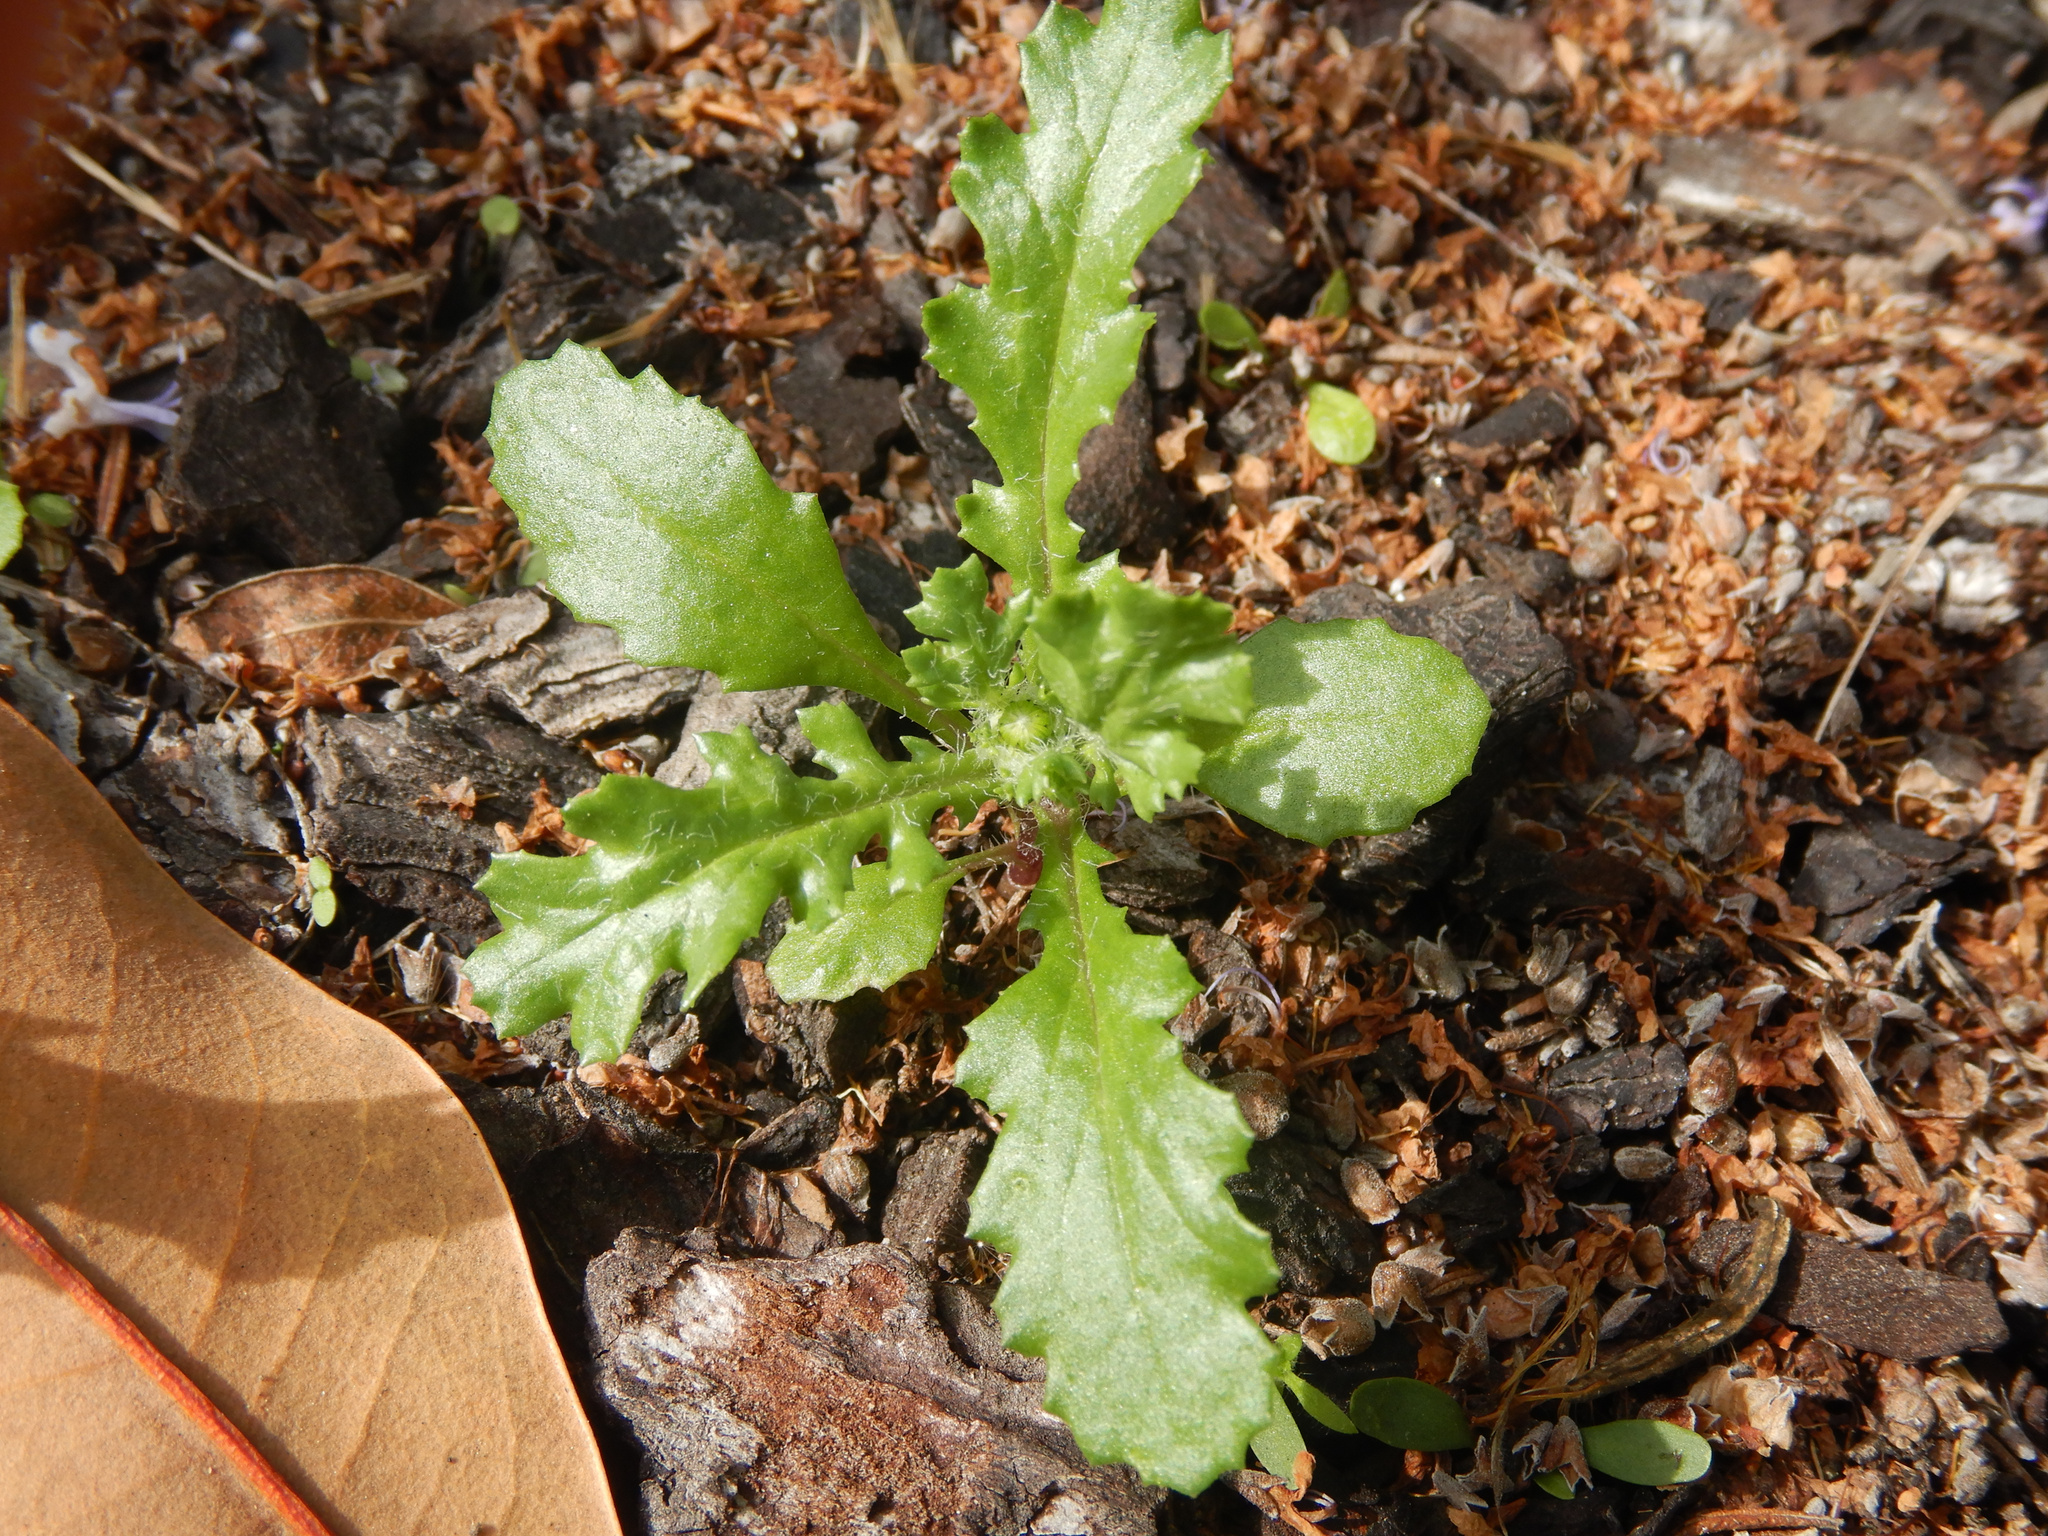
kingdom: Plantae
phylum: Tracheophyta
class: Magnoliopsida
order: Asterales
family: Asteraceae
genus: Senecio
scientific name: Senecio vulgaris
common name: Old-man-in-the-spring
